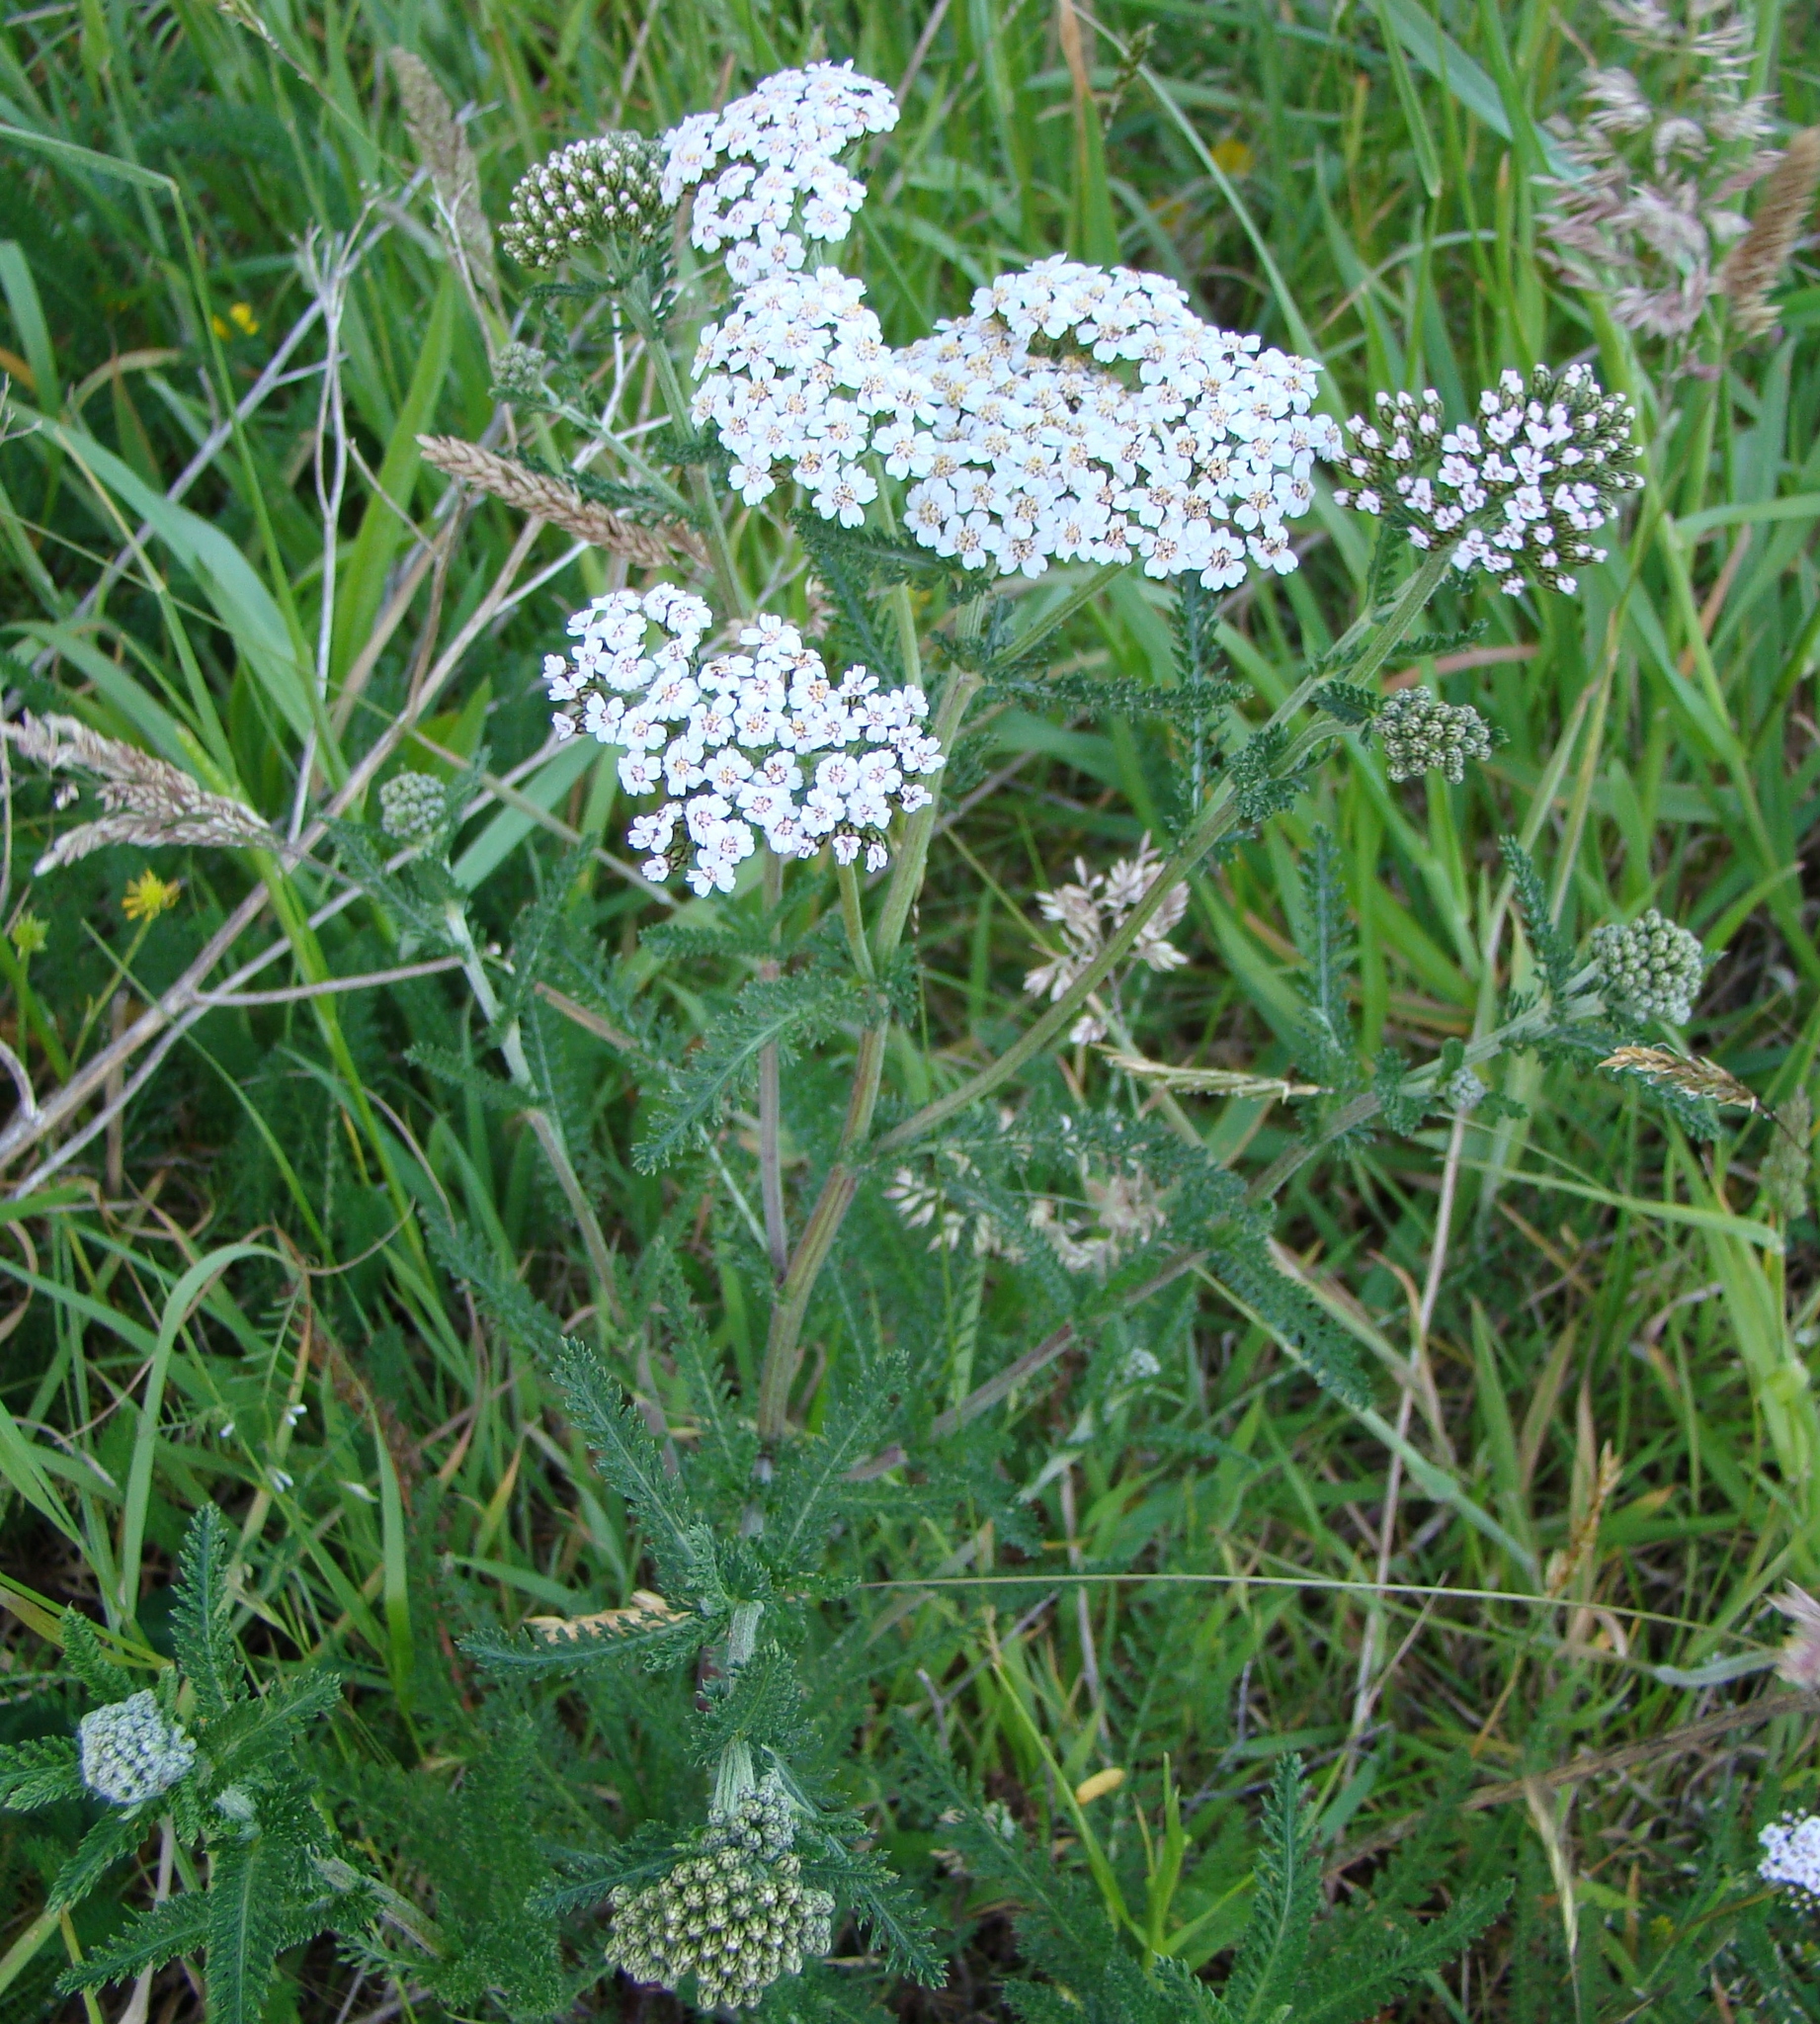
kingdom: Plantae
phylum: Tracheophyta
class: Magnoliopsida
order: Asterales
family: Asteraceae
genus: Achillea
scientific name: Achillea millefolium
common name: Yarrow
